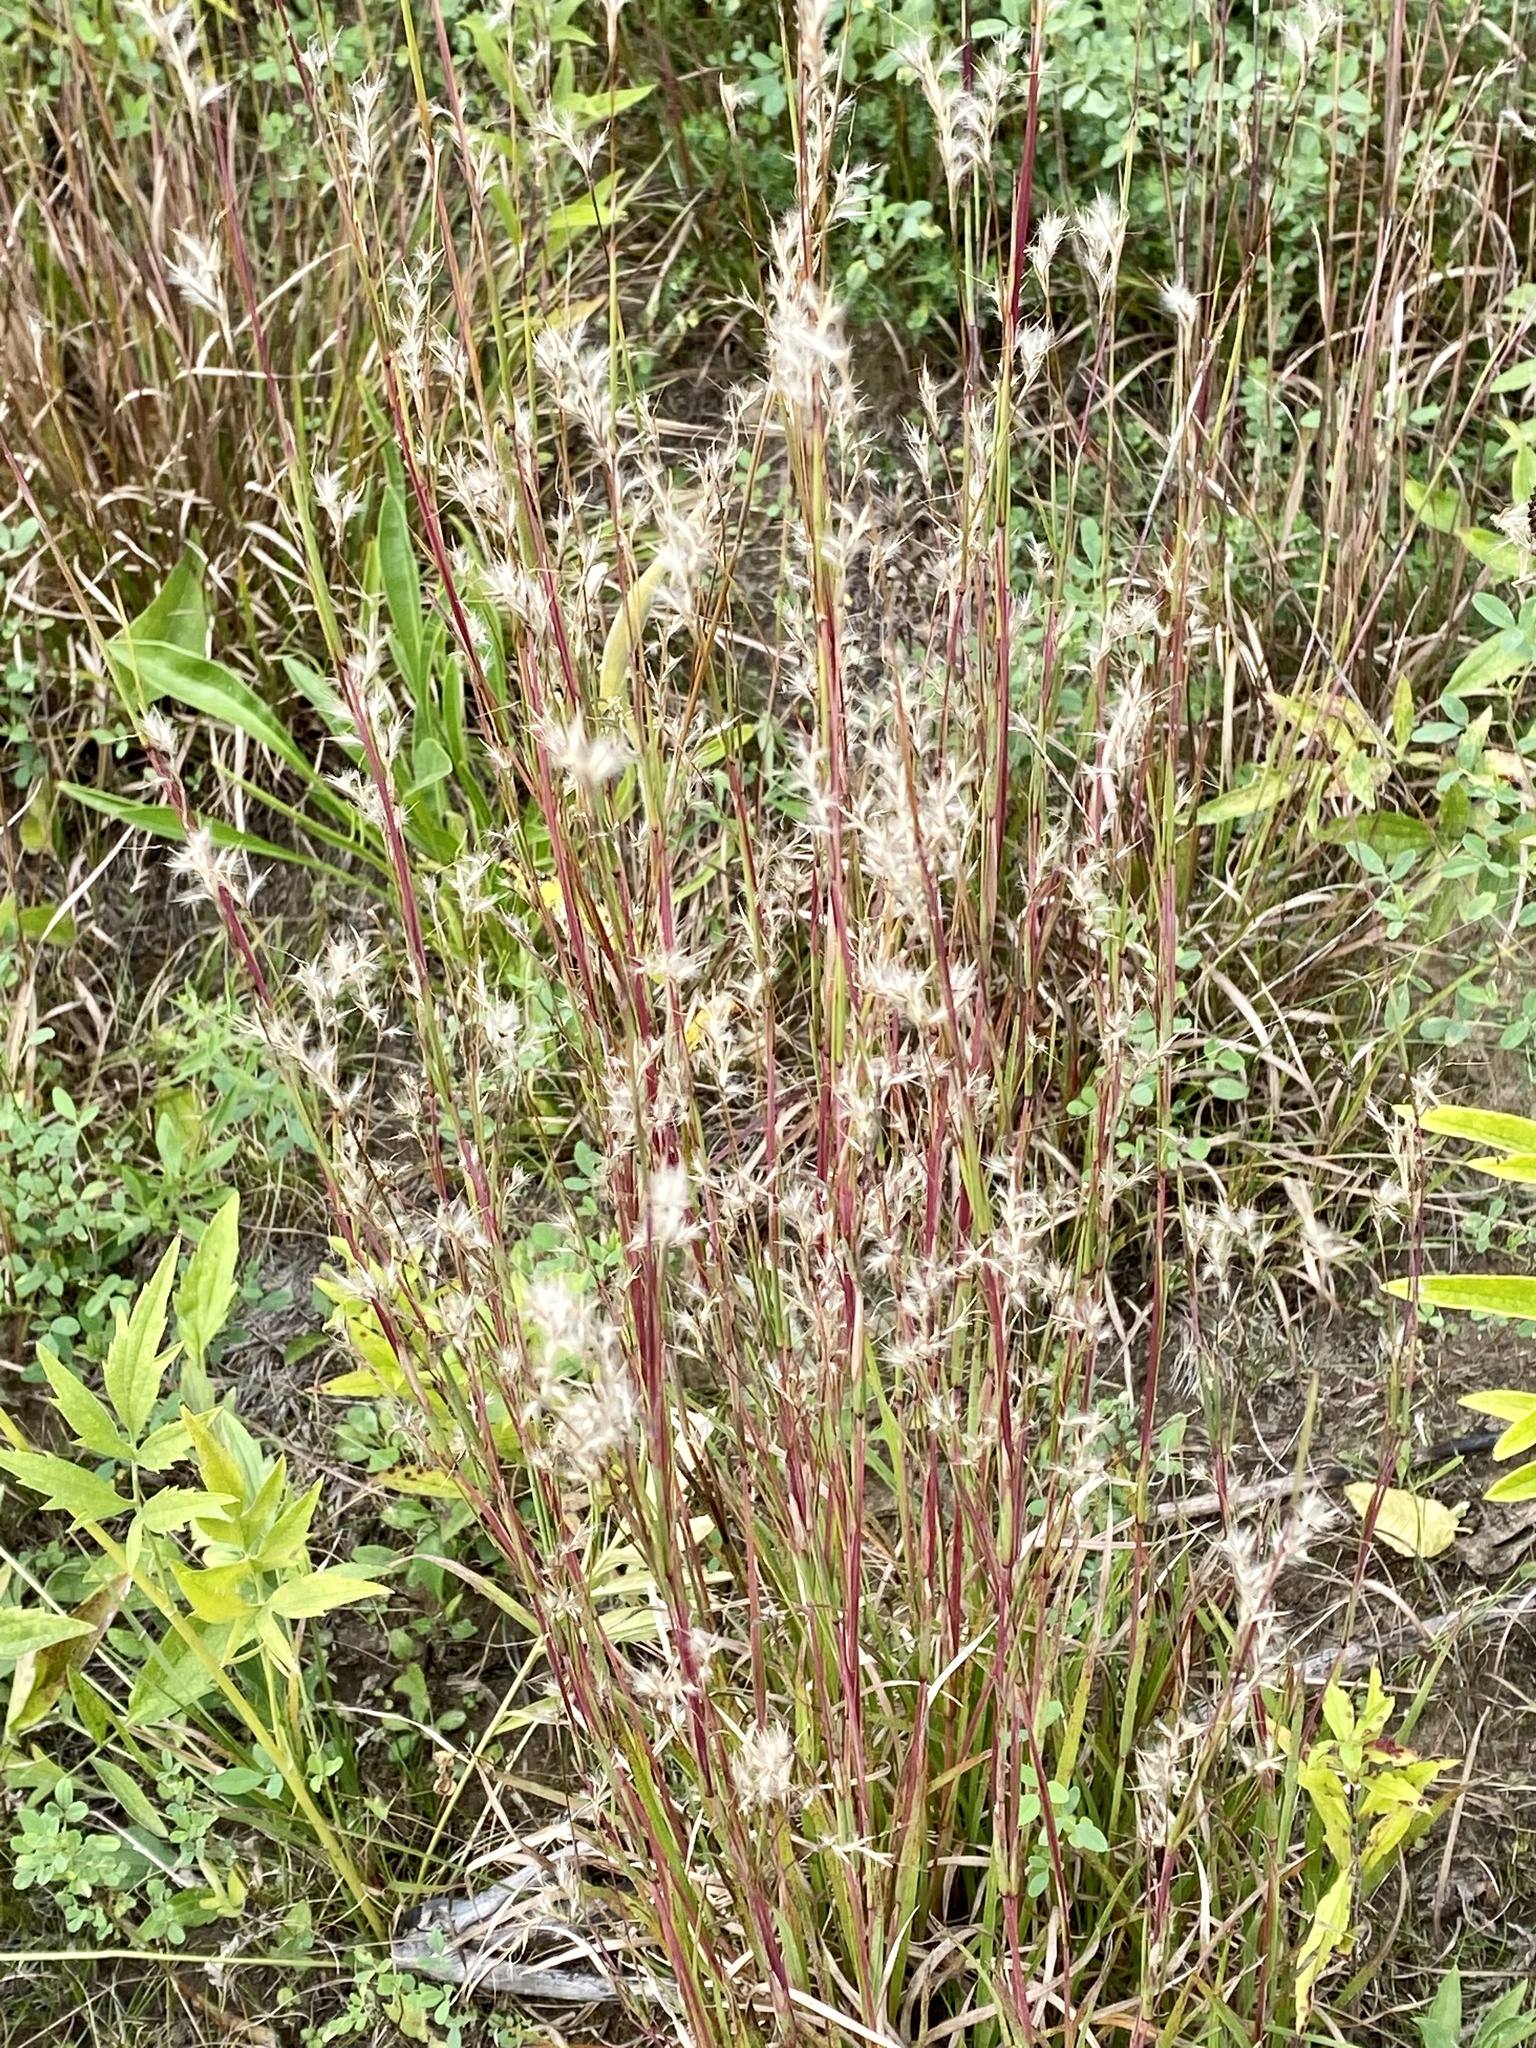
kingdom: Plantae
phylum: Tracheophyta
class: Liliopsida
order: Poales
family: Poaceae
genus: Schizachyrium
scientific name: Schizachyrium scoparium
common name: Little bluestem
